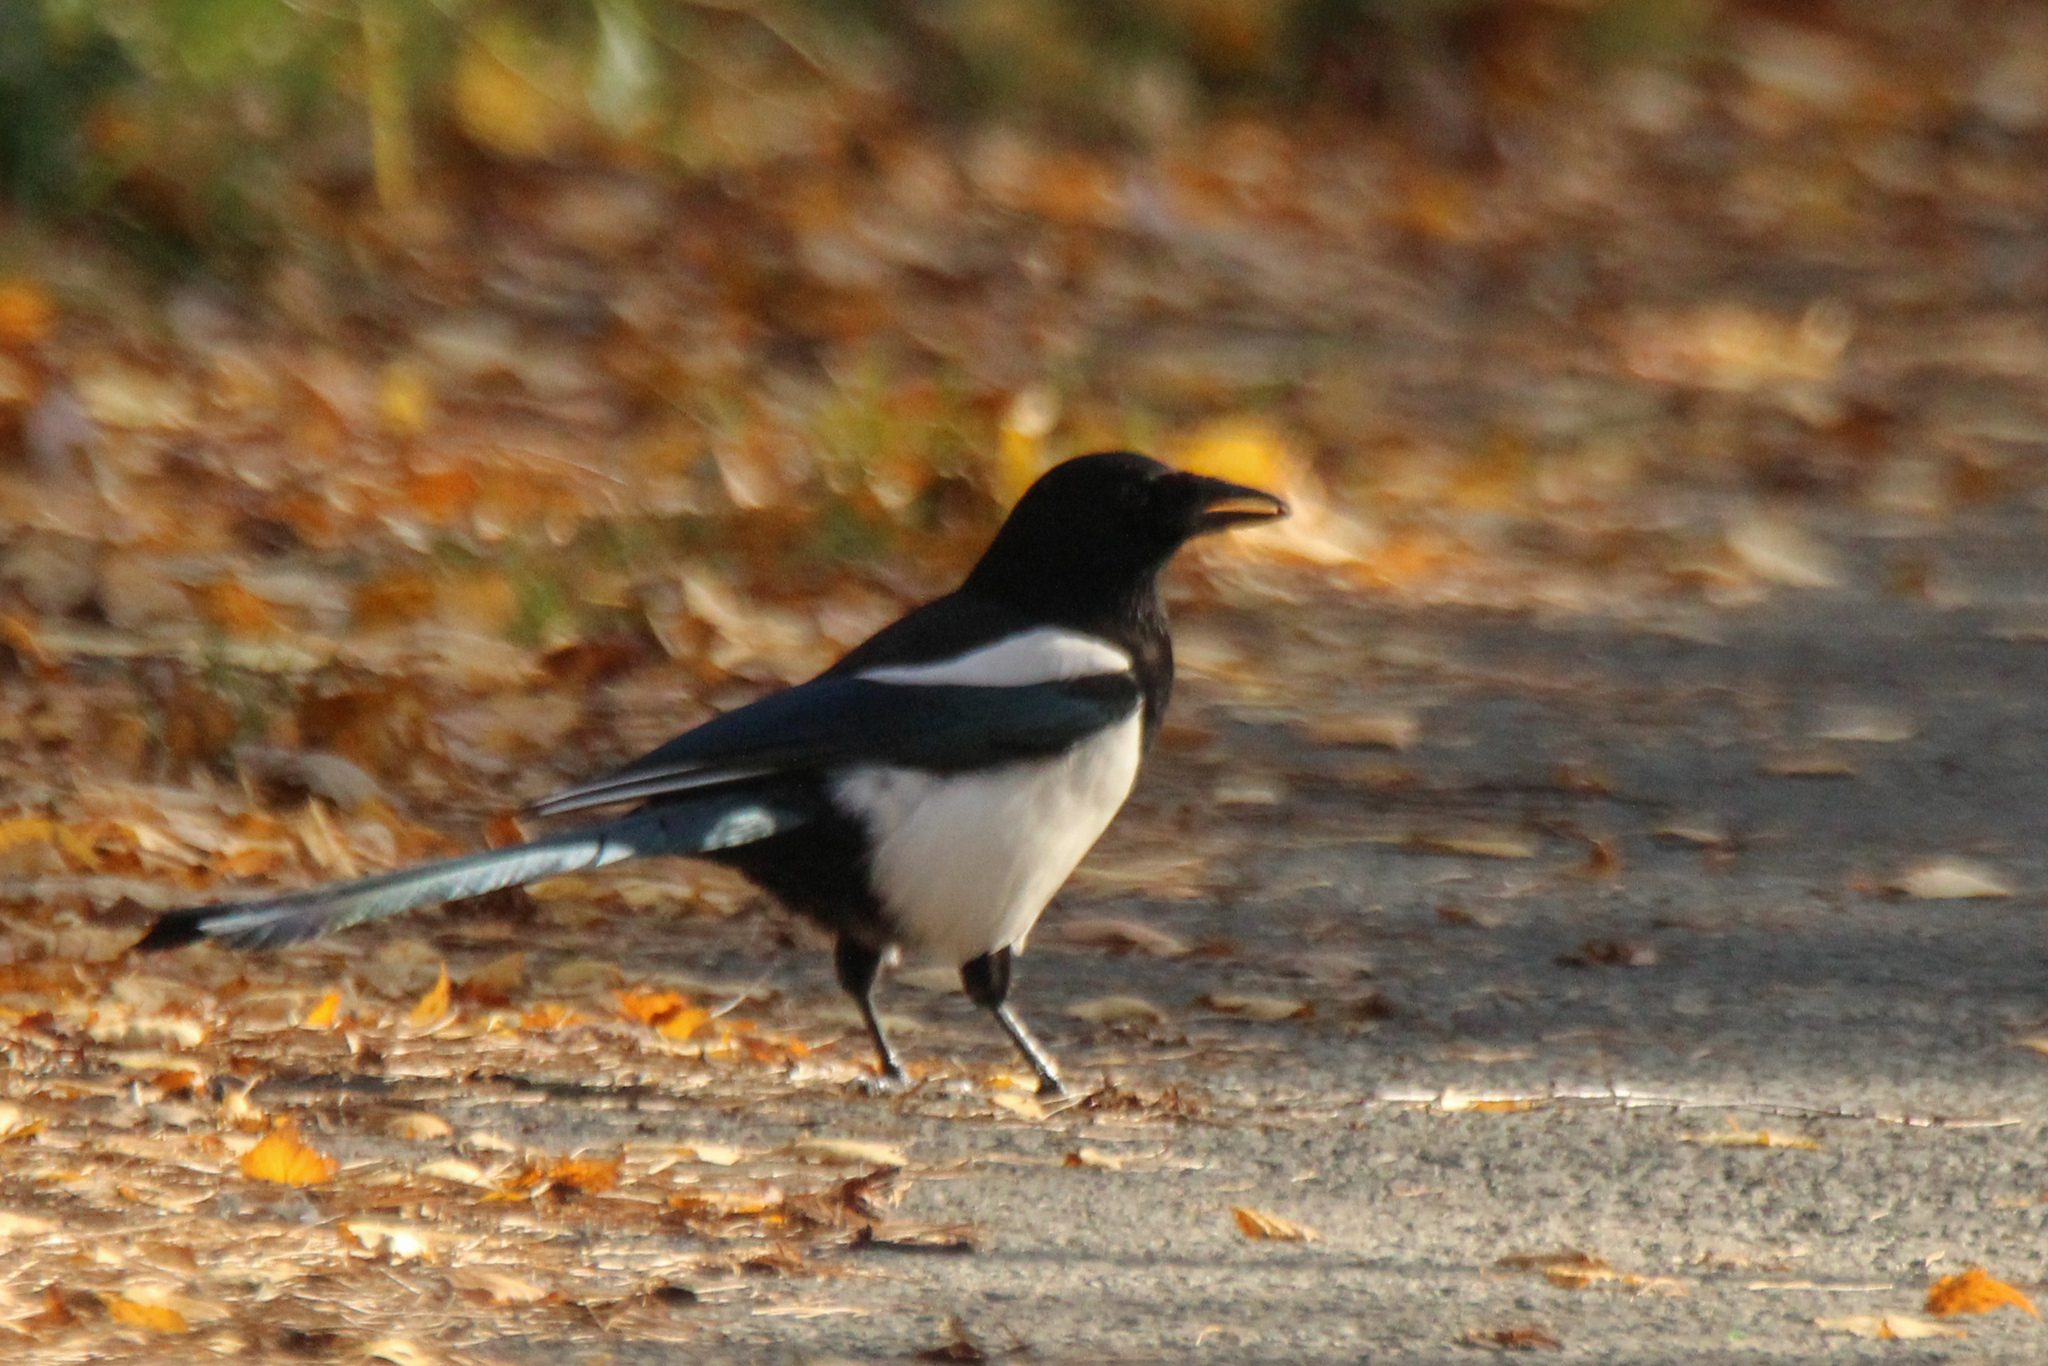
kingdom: Animalia
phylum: Chordata
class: Aves
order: Passeriformes
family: Corvidae
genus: Pica
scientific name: Pica pica
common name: Eurasian magpie
